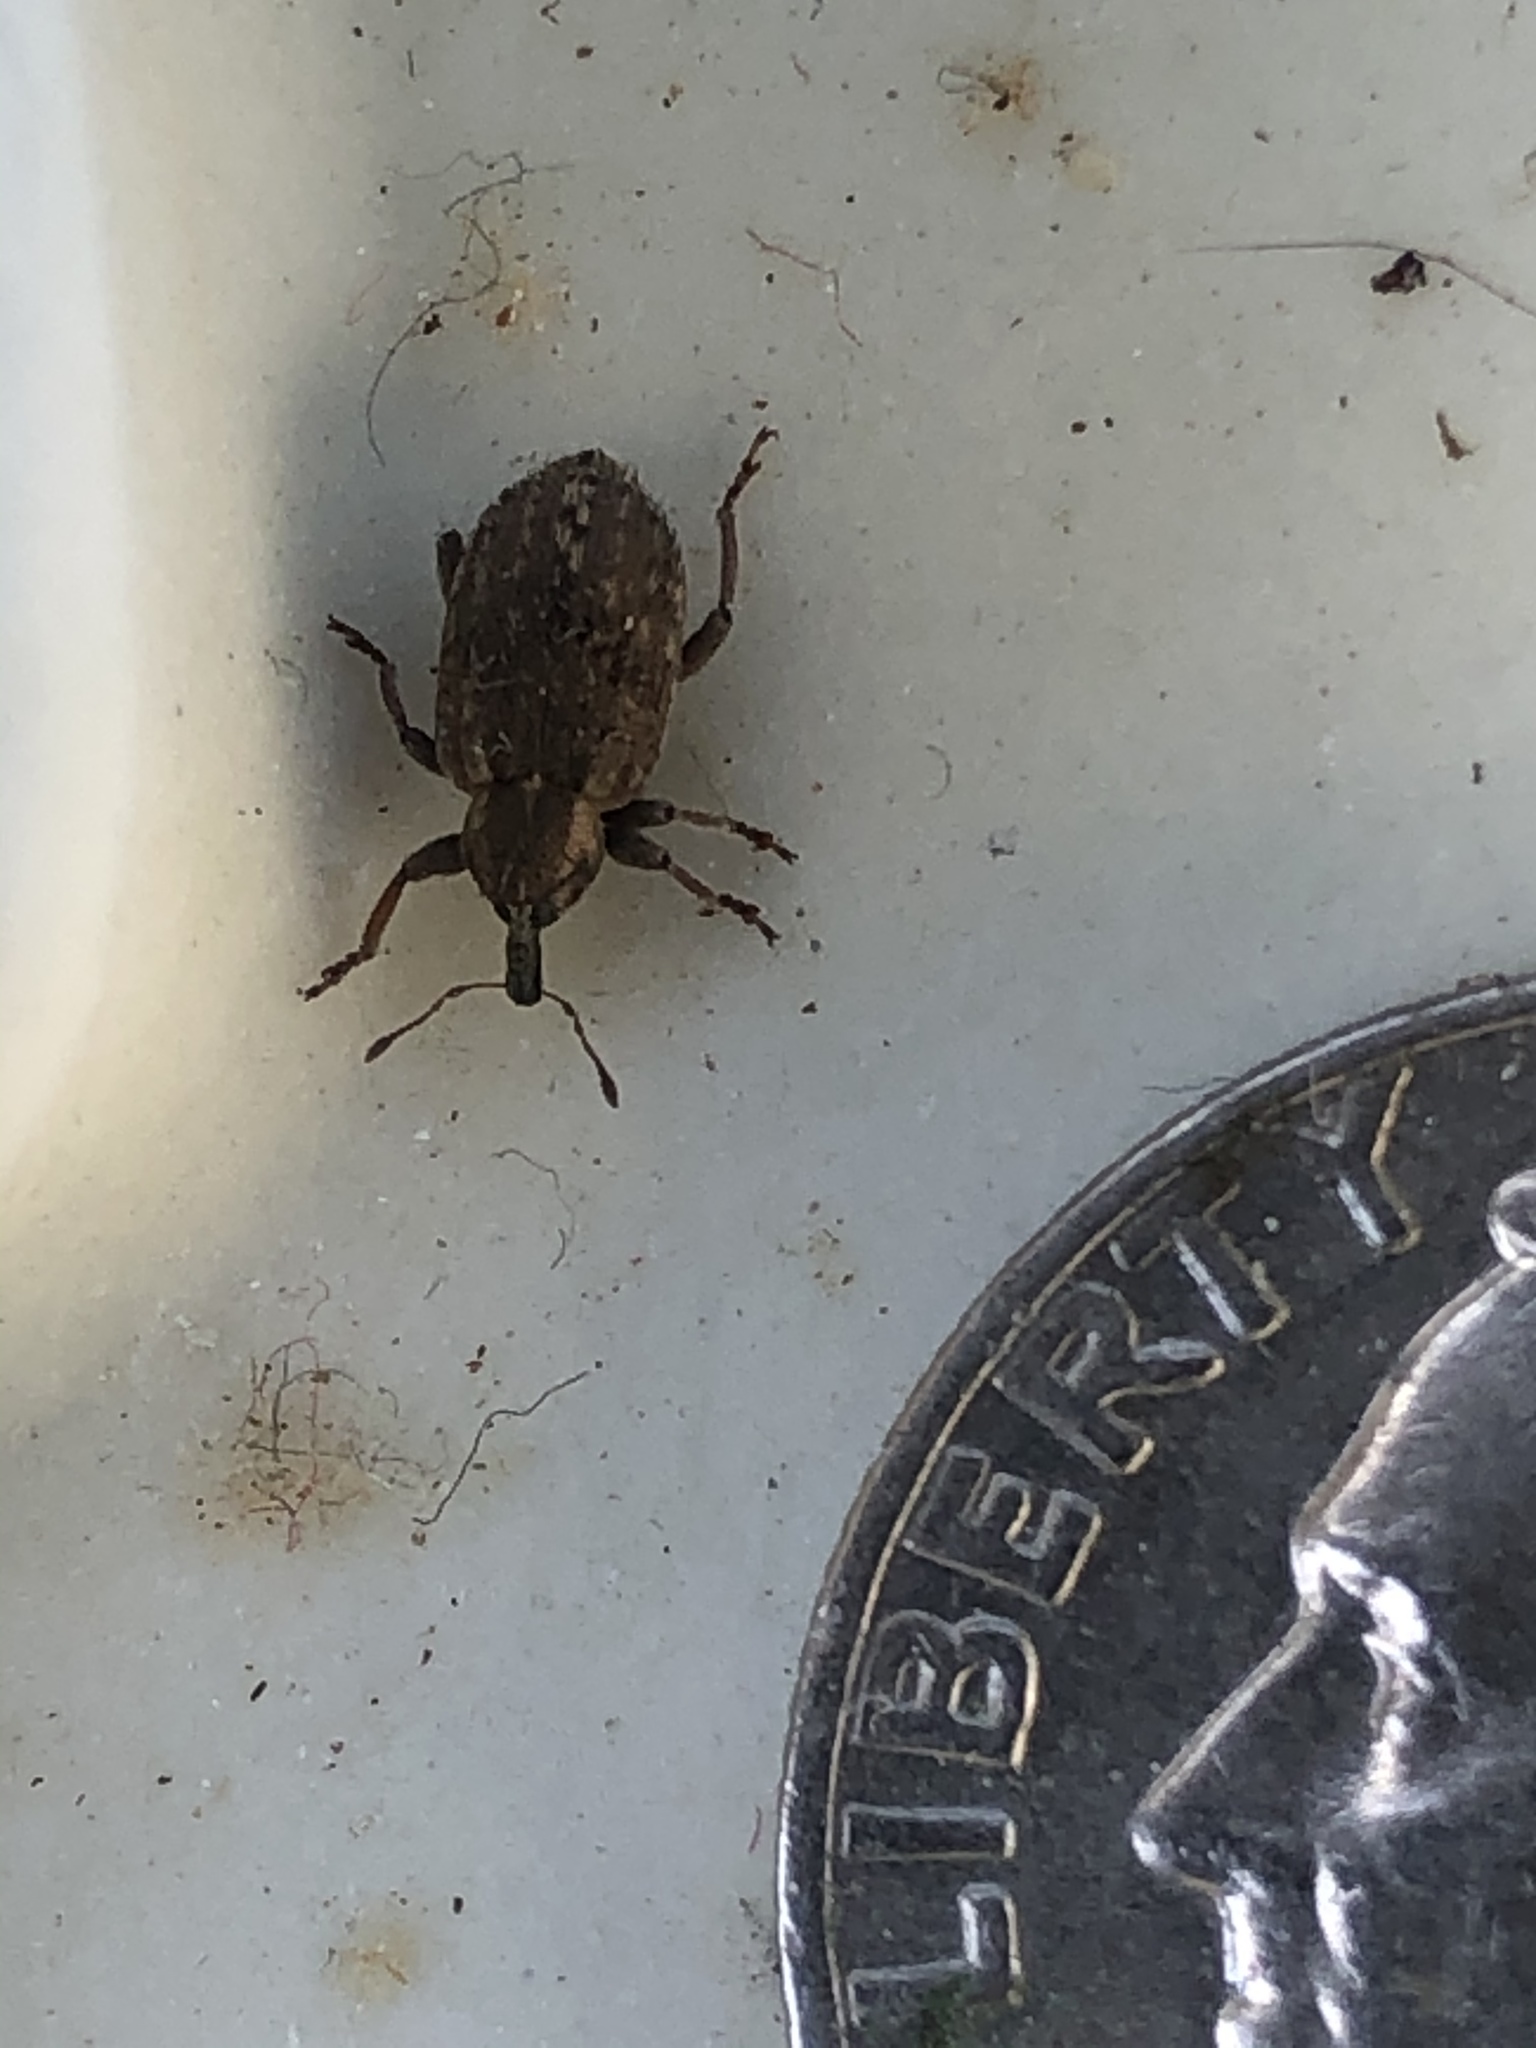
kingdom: Animalia
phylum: Arthropoda
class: Insecta
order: Coleoptera
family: Curculionidae
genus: Hypera
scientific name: Hypera postica
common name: Weevil
